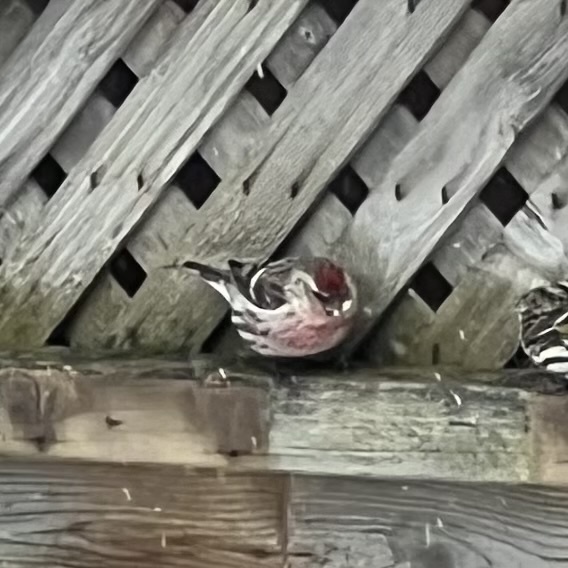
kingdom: Animalia
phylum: Chordata
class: Aves
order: Passeriformes
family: Fringillidae
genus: Acanthis
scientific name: Acanthis flammea
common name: Common redpoll
